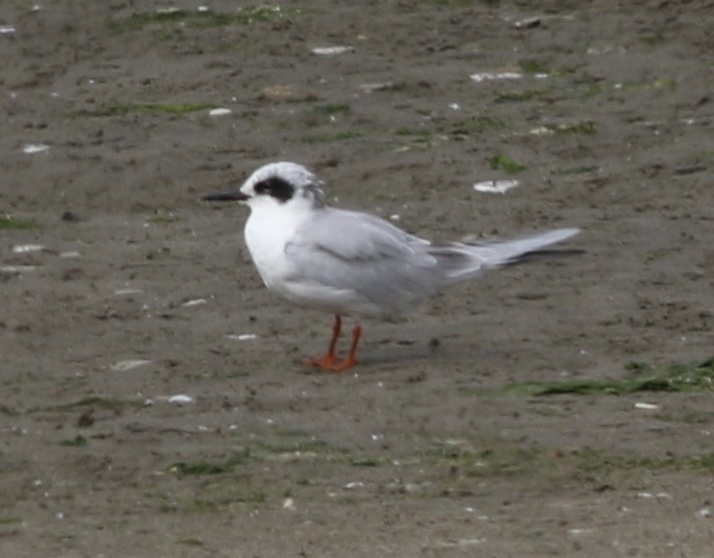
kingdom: Animalia
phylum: Chordata
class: Aves
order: Charadriiformes
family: Laridae
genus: Sterna
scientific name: Sterna forsteri
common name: Forster's tern
